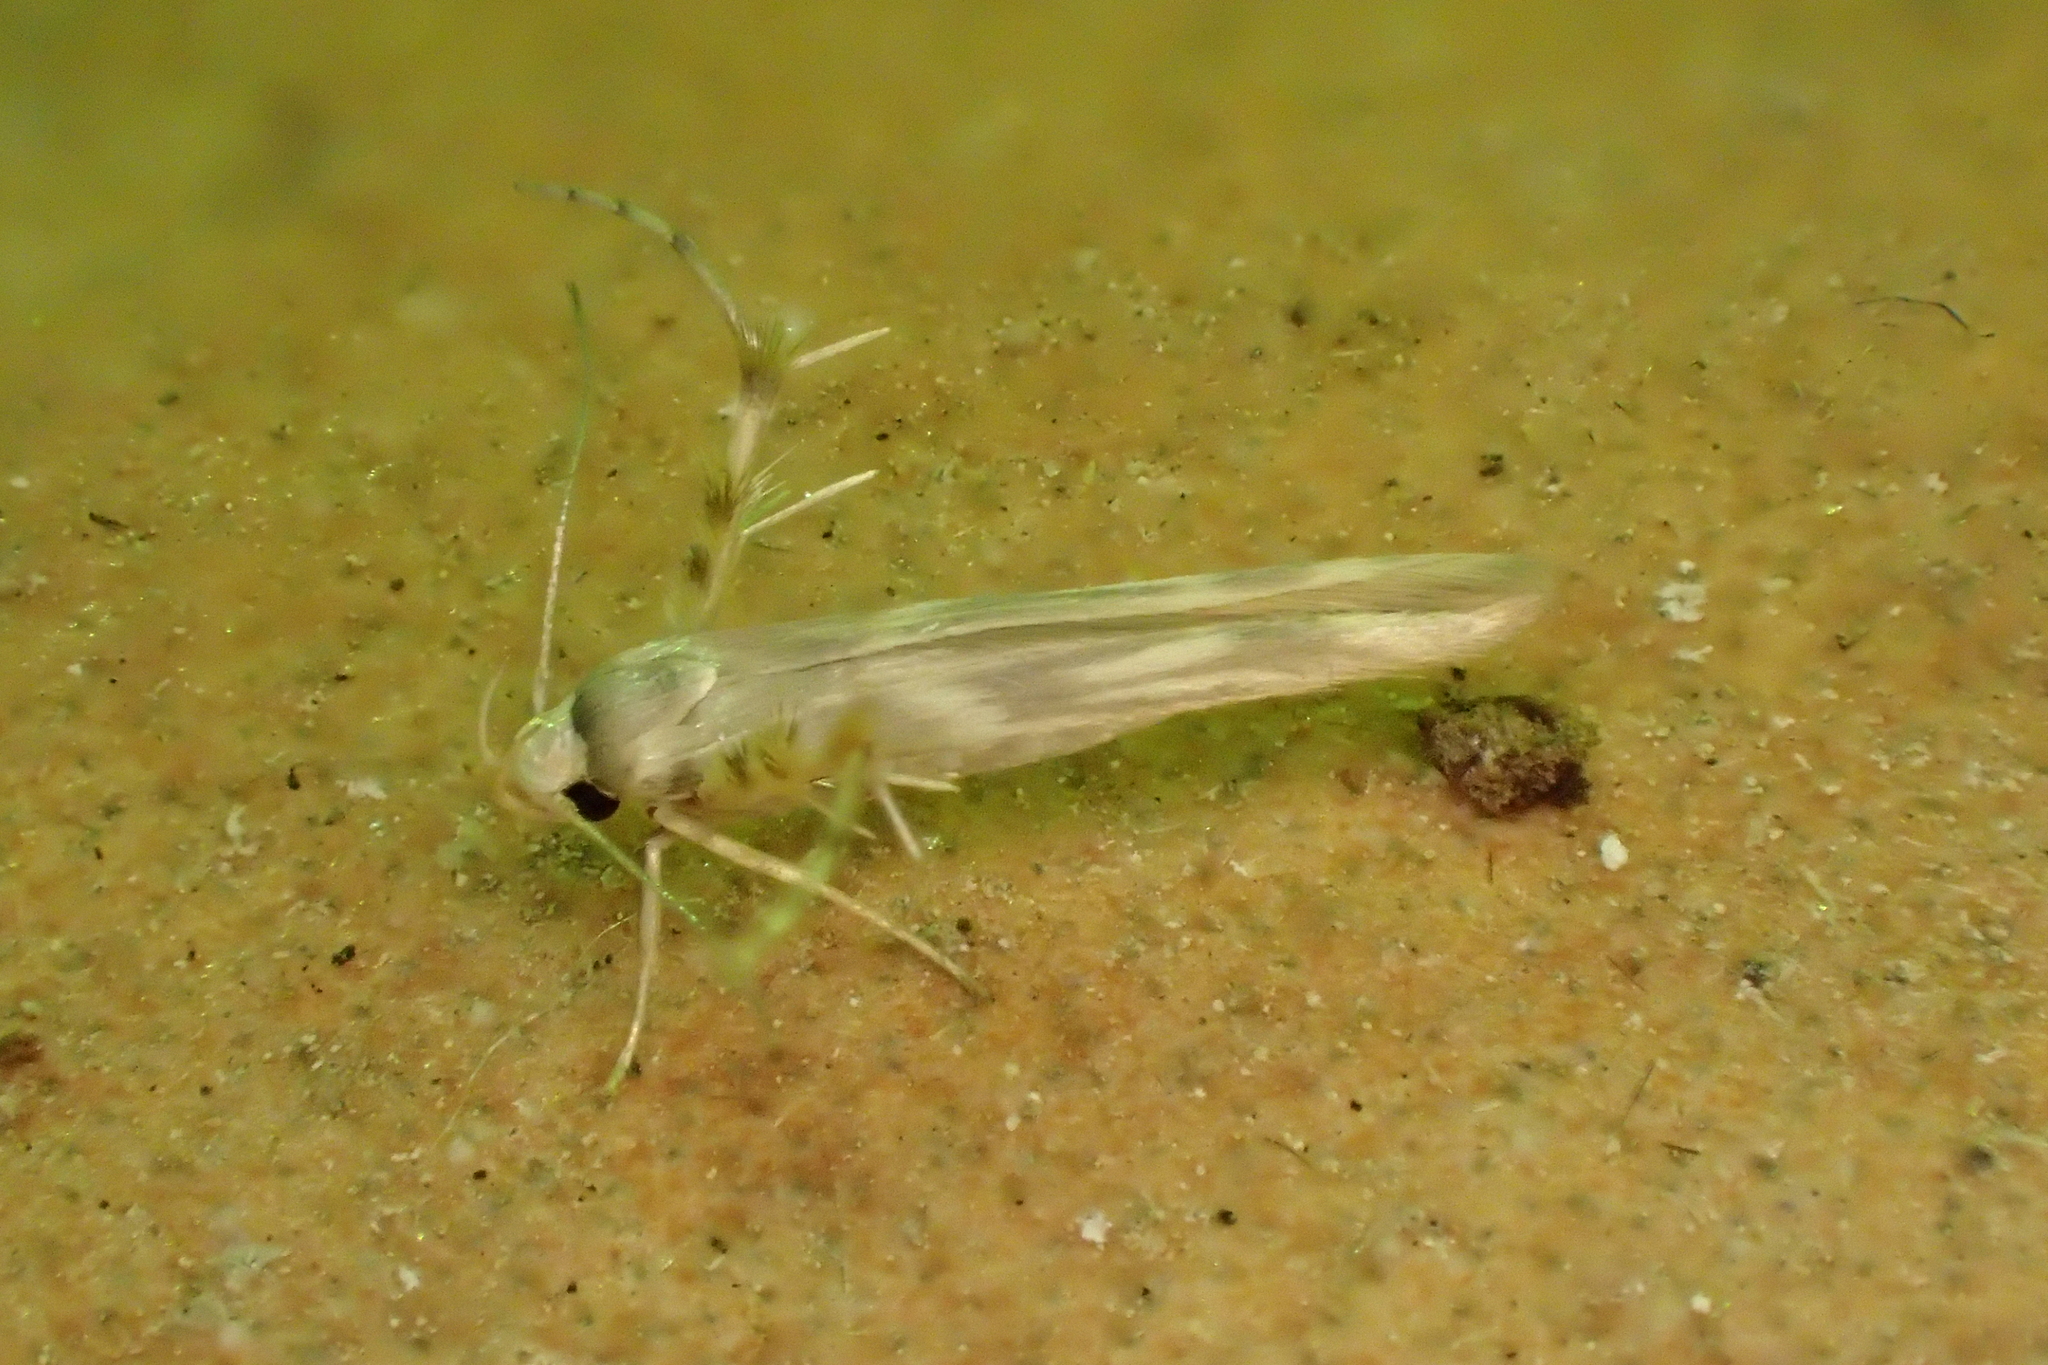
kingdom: Animalia
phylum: Arthropoda
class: Insecta
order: Lepidoptera
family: Gelechiidae
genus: Palumbina
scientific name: Palumbina guerinii
